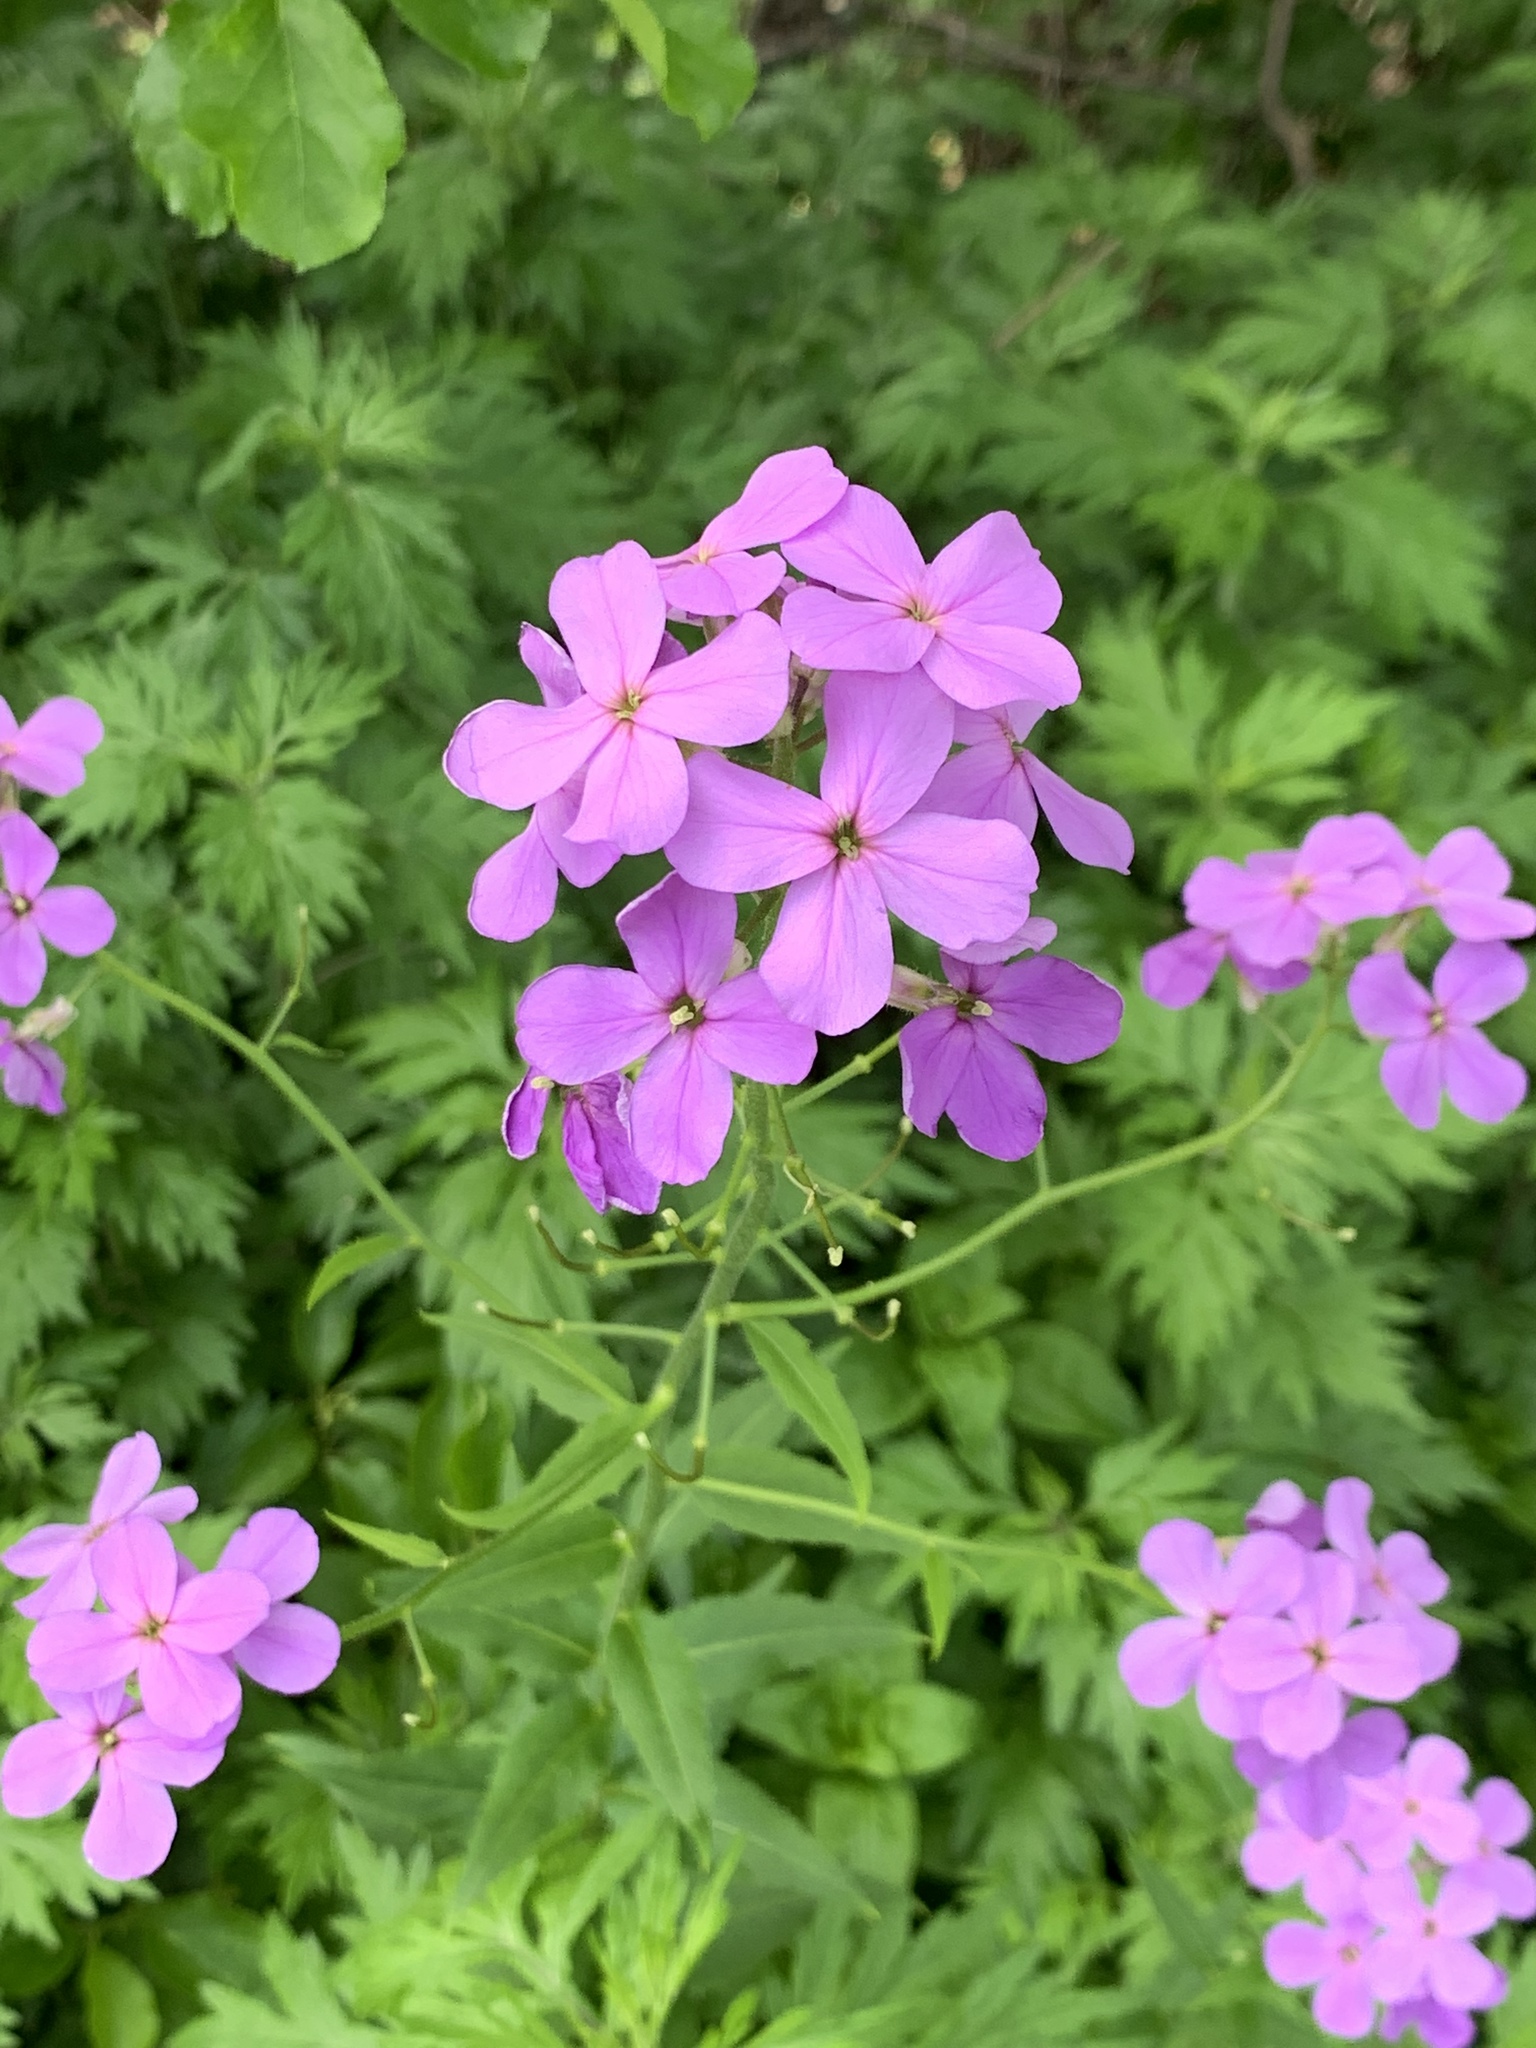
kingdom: Plantae
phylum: Tracheophyta
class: Magnoliopsida
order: Brassicales
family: Brassicaceae
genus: Hesperis
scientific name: Hesperis matronalis
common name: Dame's-violet
